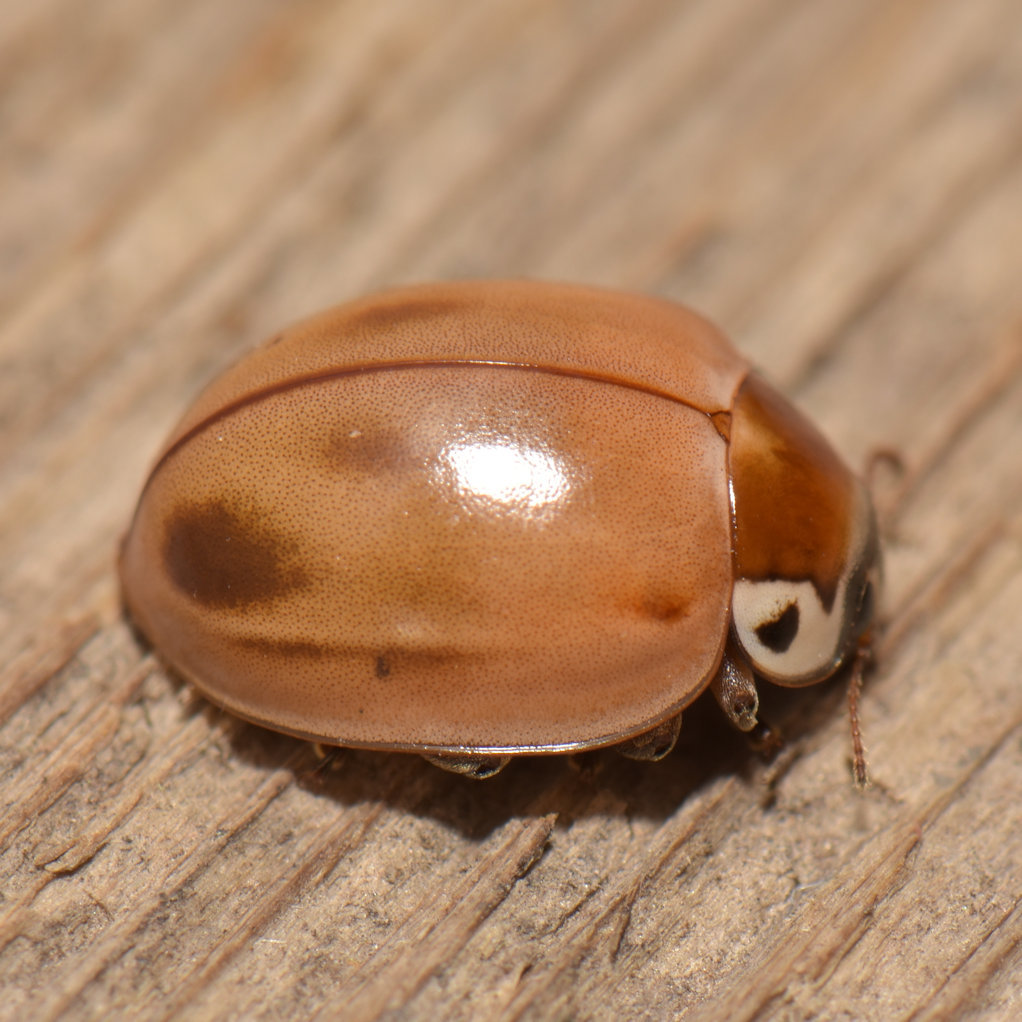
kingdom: Animalia
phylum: Arthropoda
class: Insecta
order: Coleoptera
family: Coccinellidae
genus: Myzia
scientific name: Myzia pullata
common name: Streaked lady beetle
